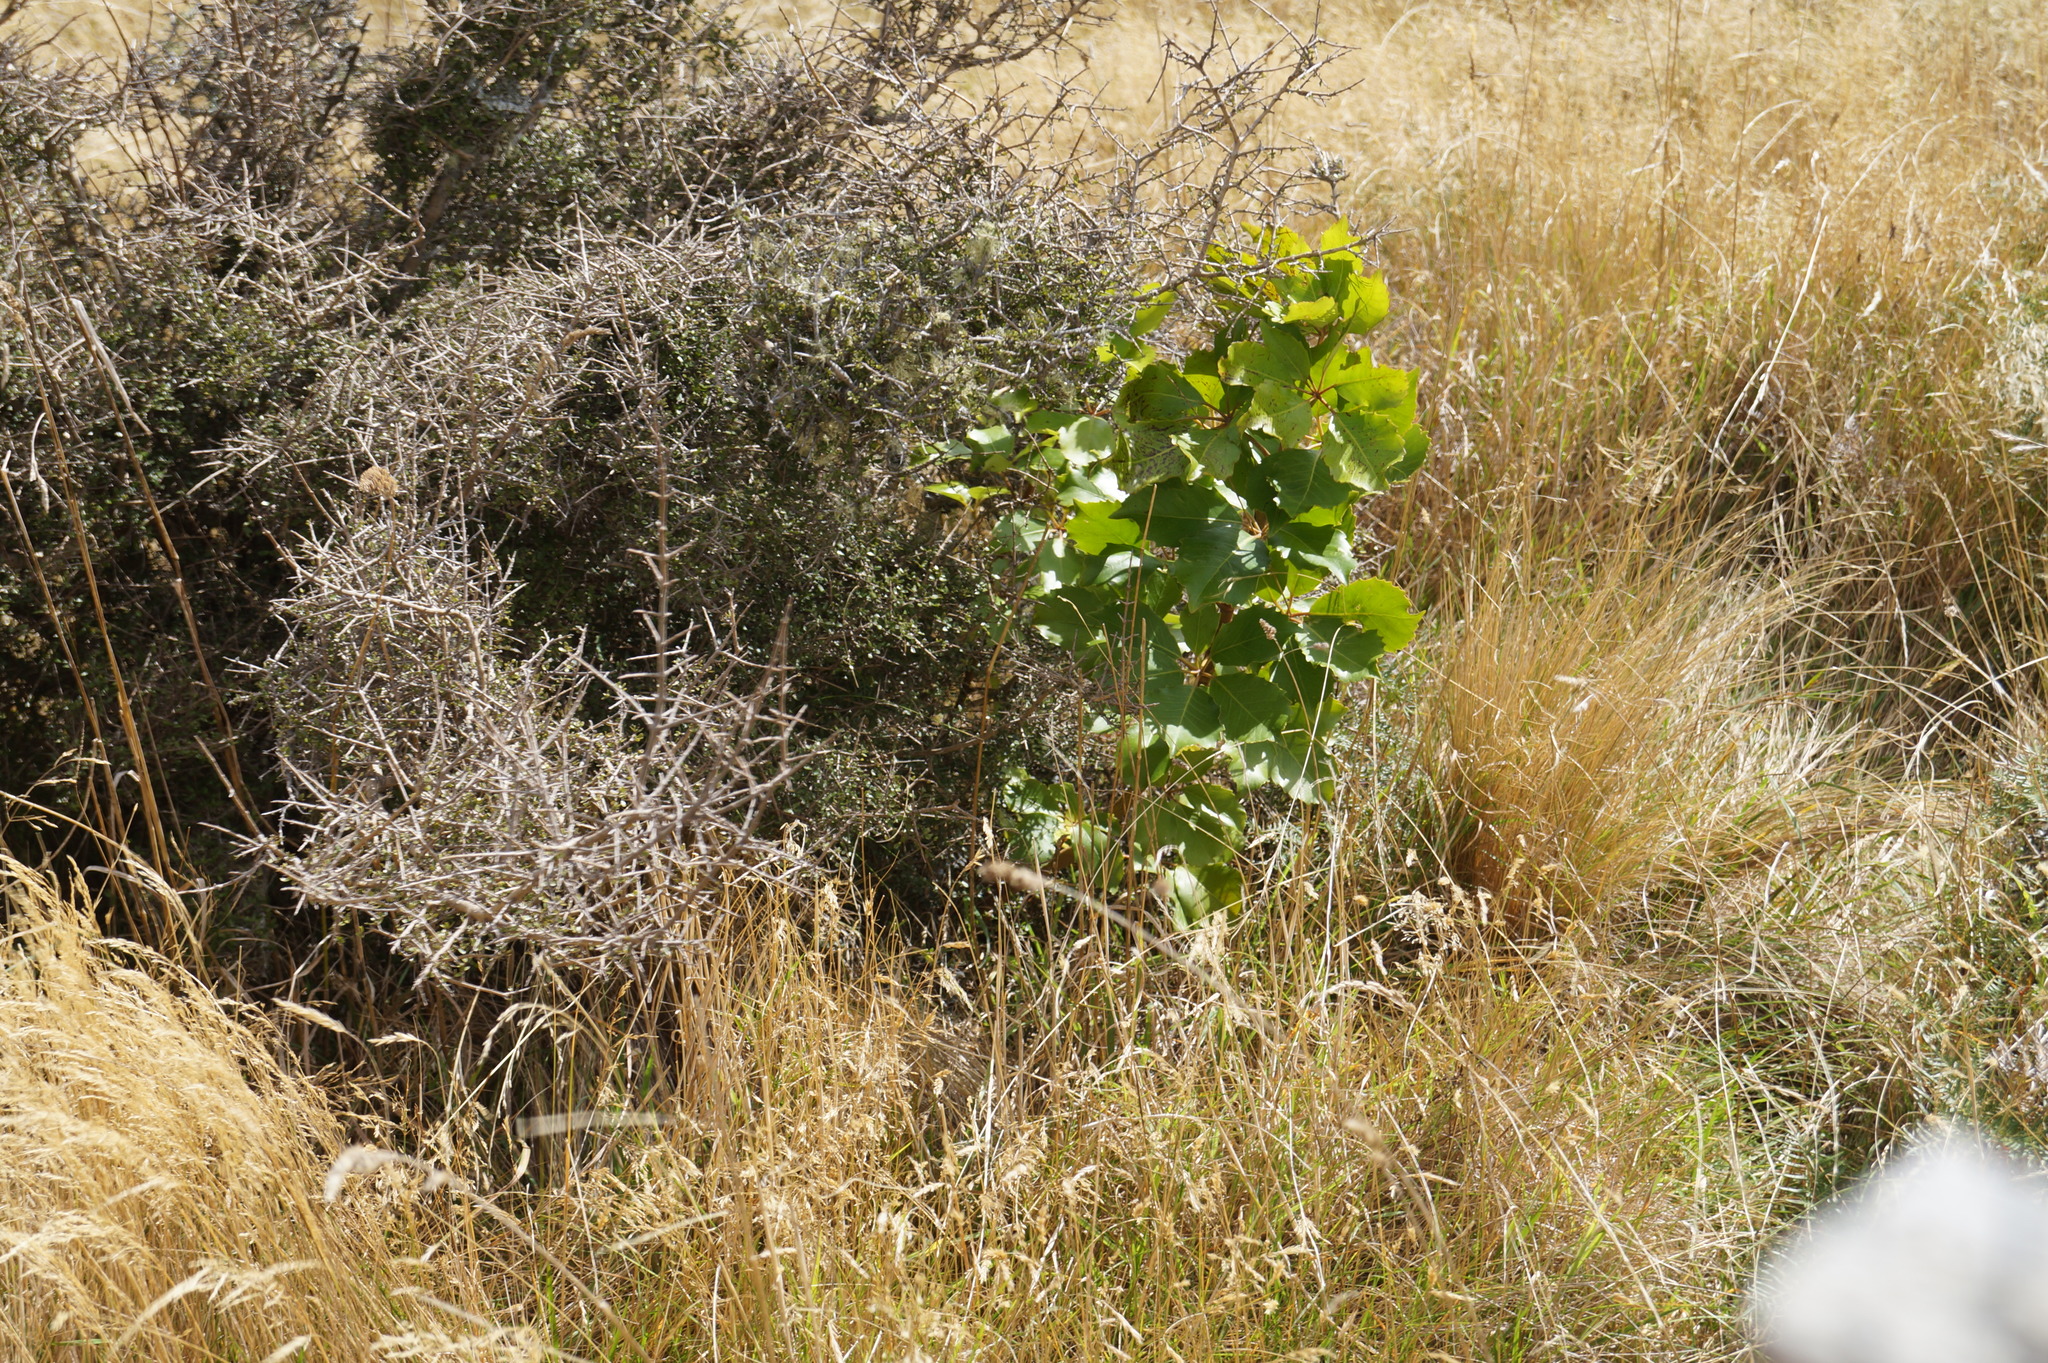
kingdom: Plantae
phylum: Tracheophyta
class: Magnoliopsida
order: Apiales
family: Araliaceae
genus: Neopanax
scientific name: Neopanax arboreus
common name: Five-fingers
